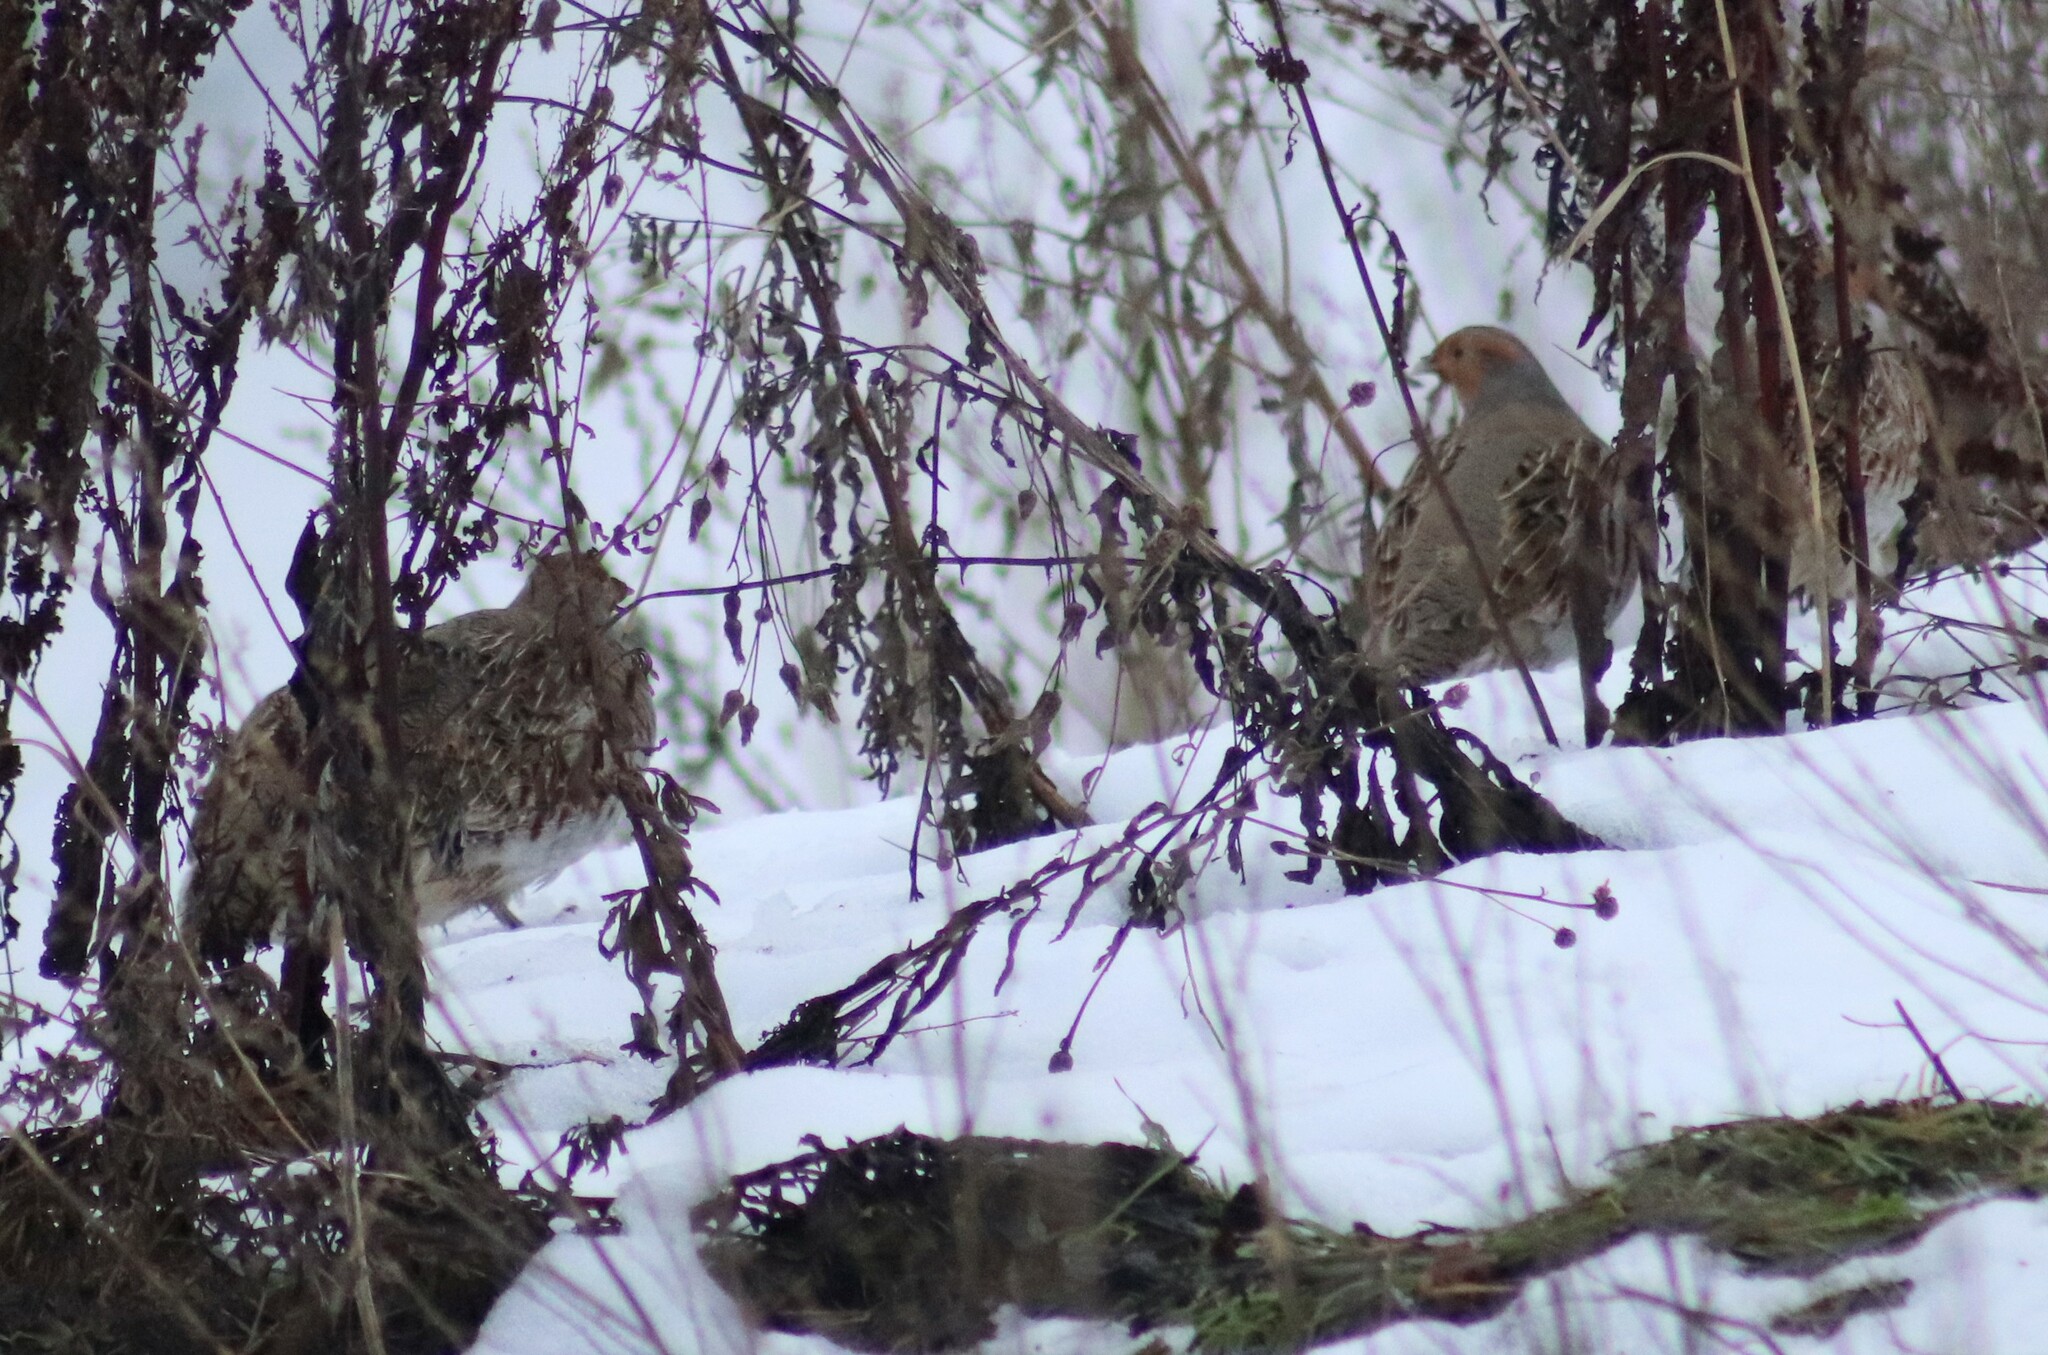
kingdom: Animalia
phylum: Chordata
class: Aves
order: Galliformes
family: Phasianidae
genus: Perdix
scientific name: Perdix perdix
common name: Grey partridge
